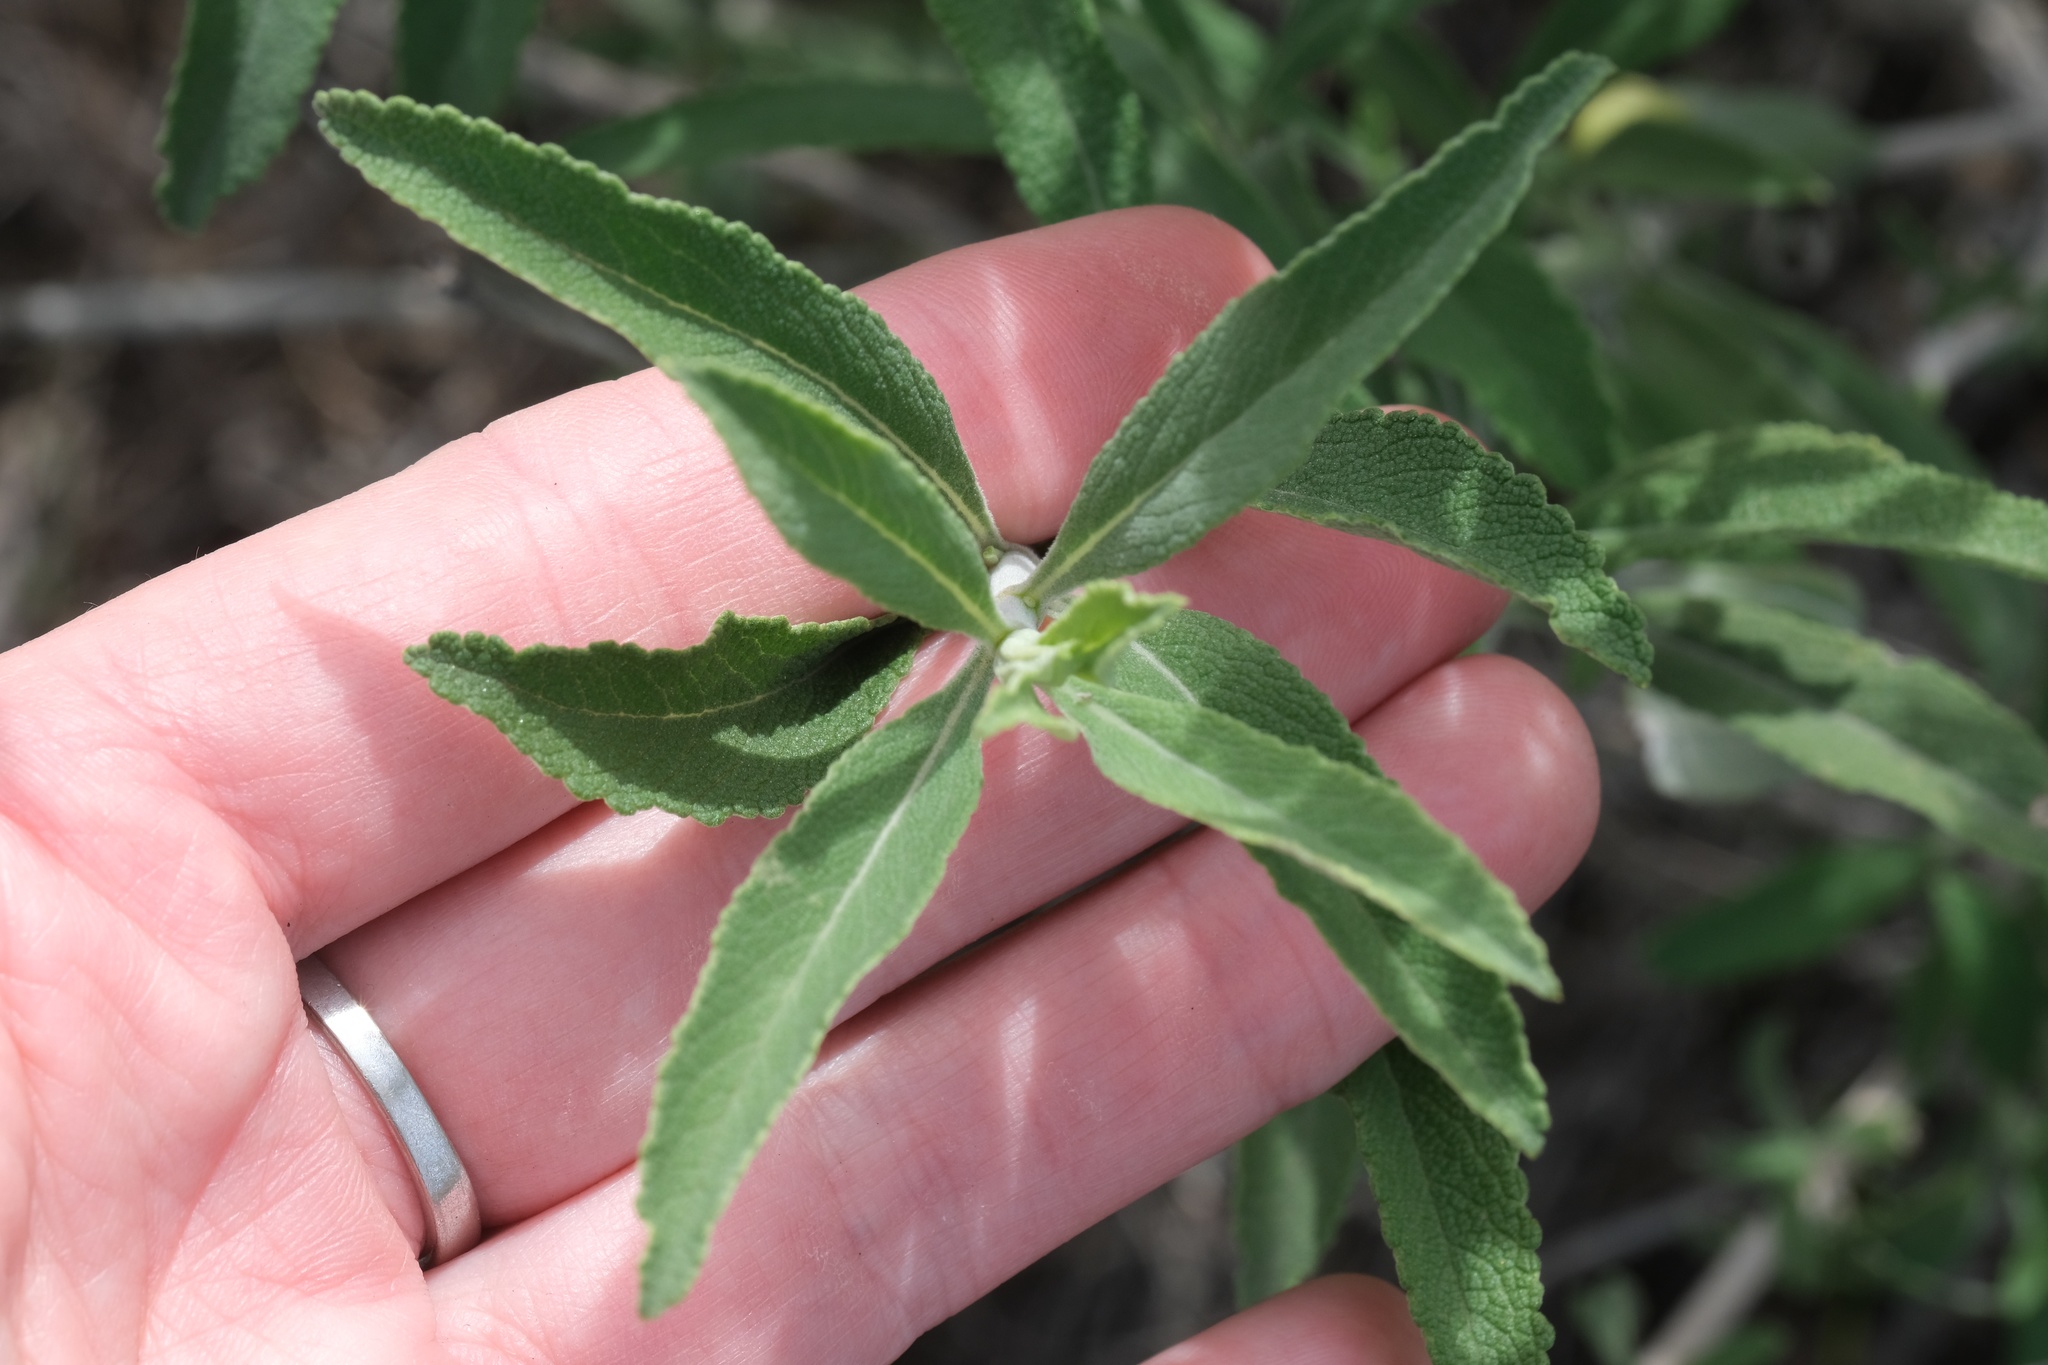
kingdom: Plantae
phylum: Tracheophyta
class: Magnoliopsida
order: Lamiales
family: Lamiaceae
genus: Salvia
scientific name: Salvia mellifera
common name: Black sage
